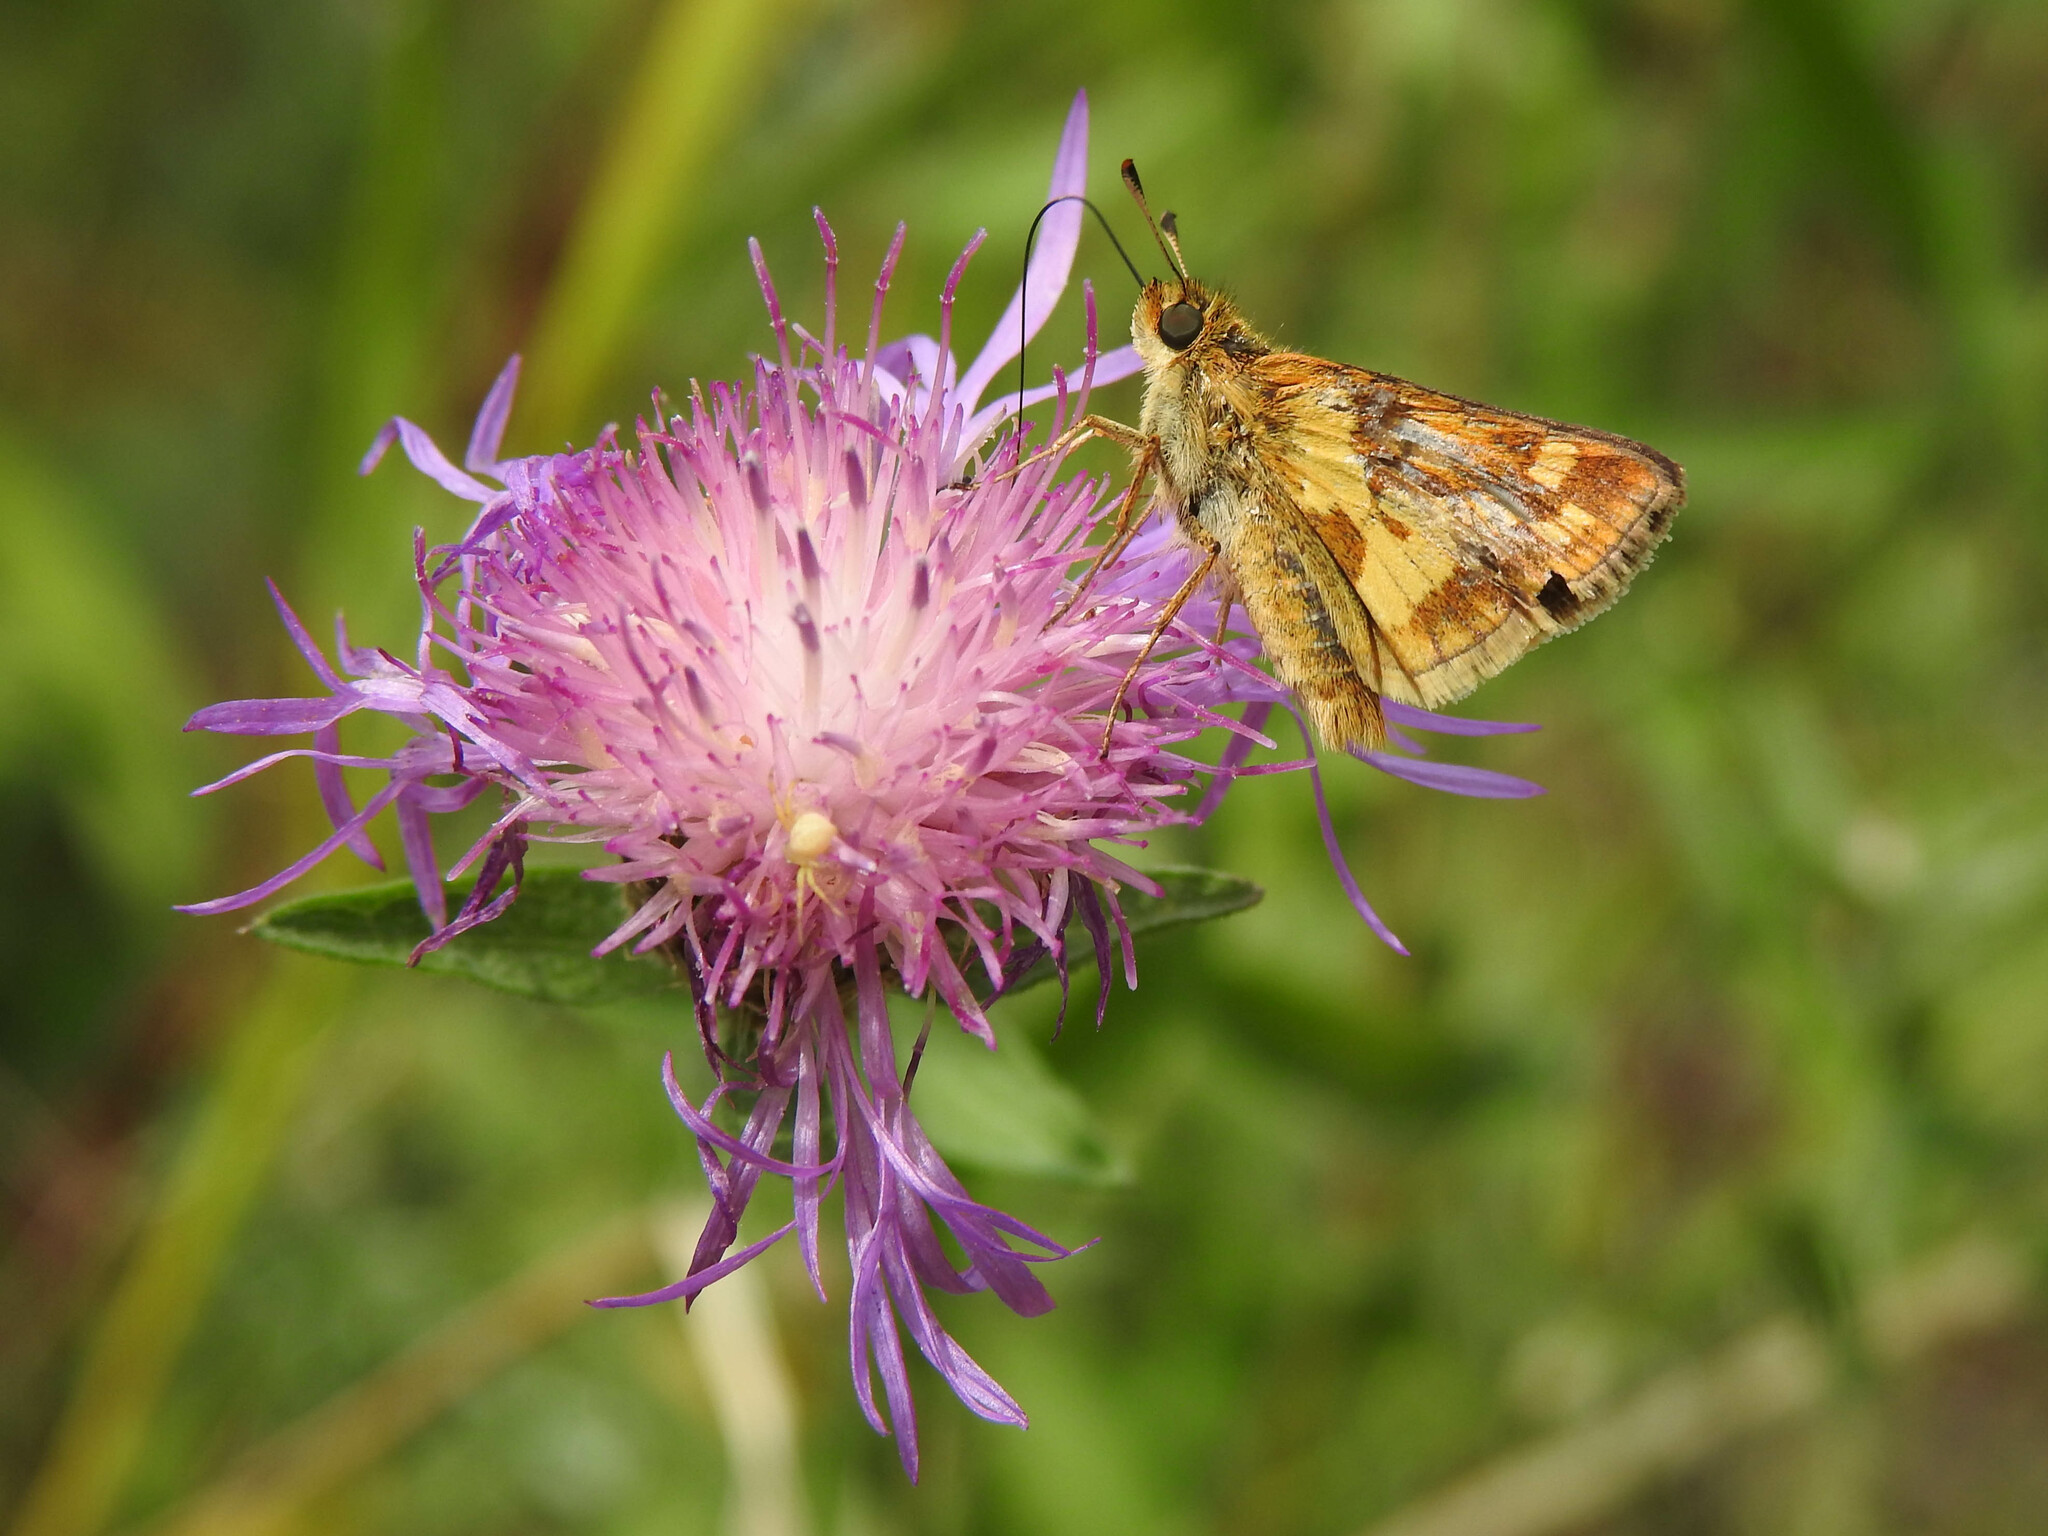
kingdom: Animalia
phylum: Arthropoda
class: Insecta
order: Lepidoptera
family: Hesperiidae
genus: Polites
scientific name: Polites coras
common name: Peck's skipper
